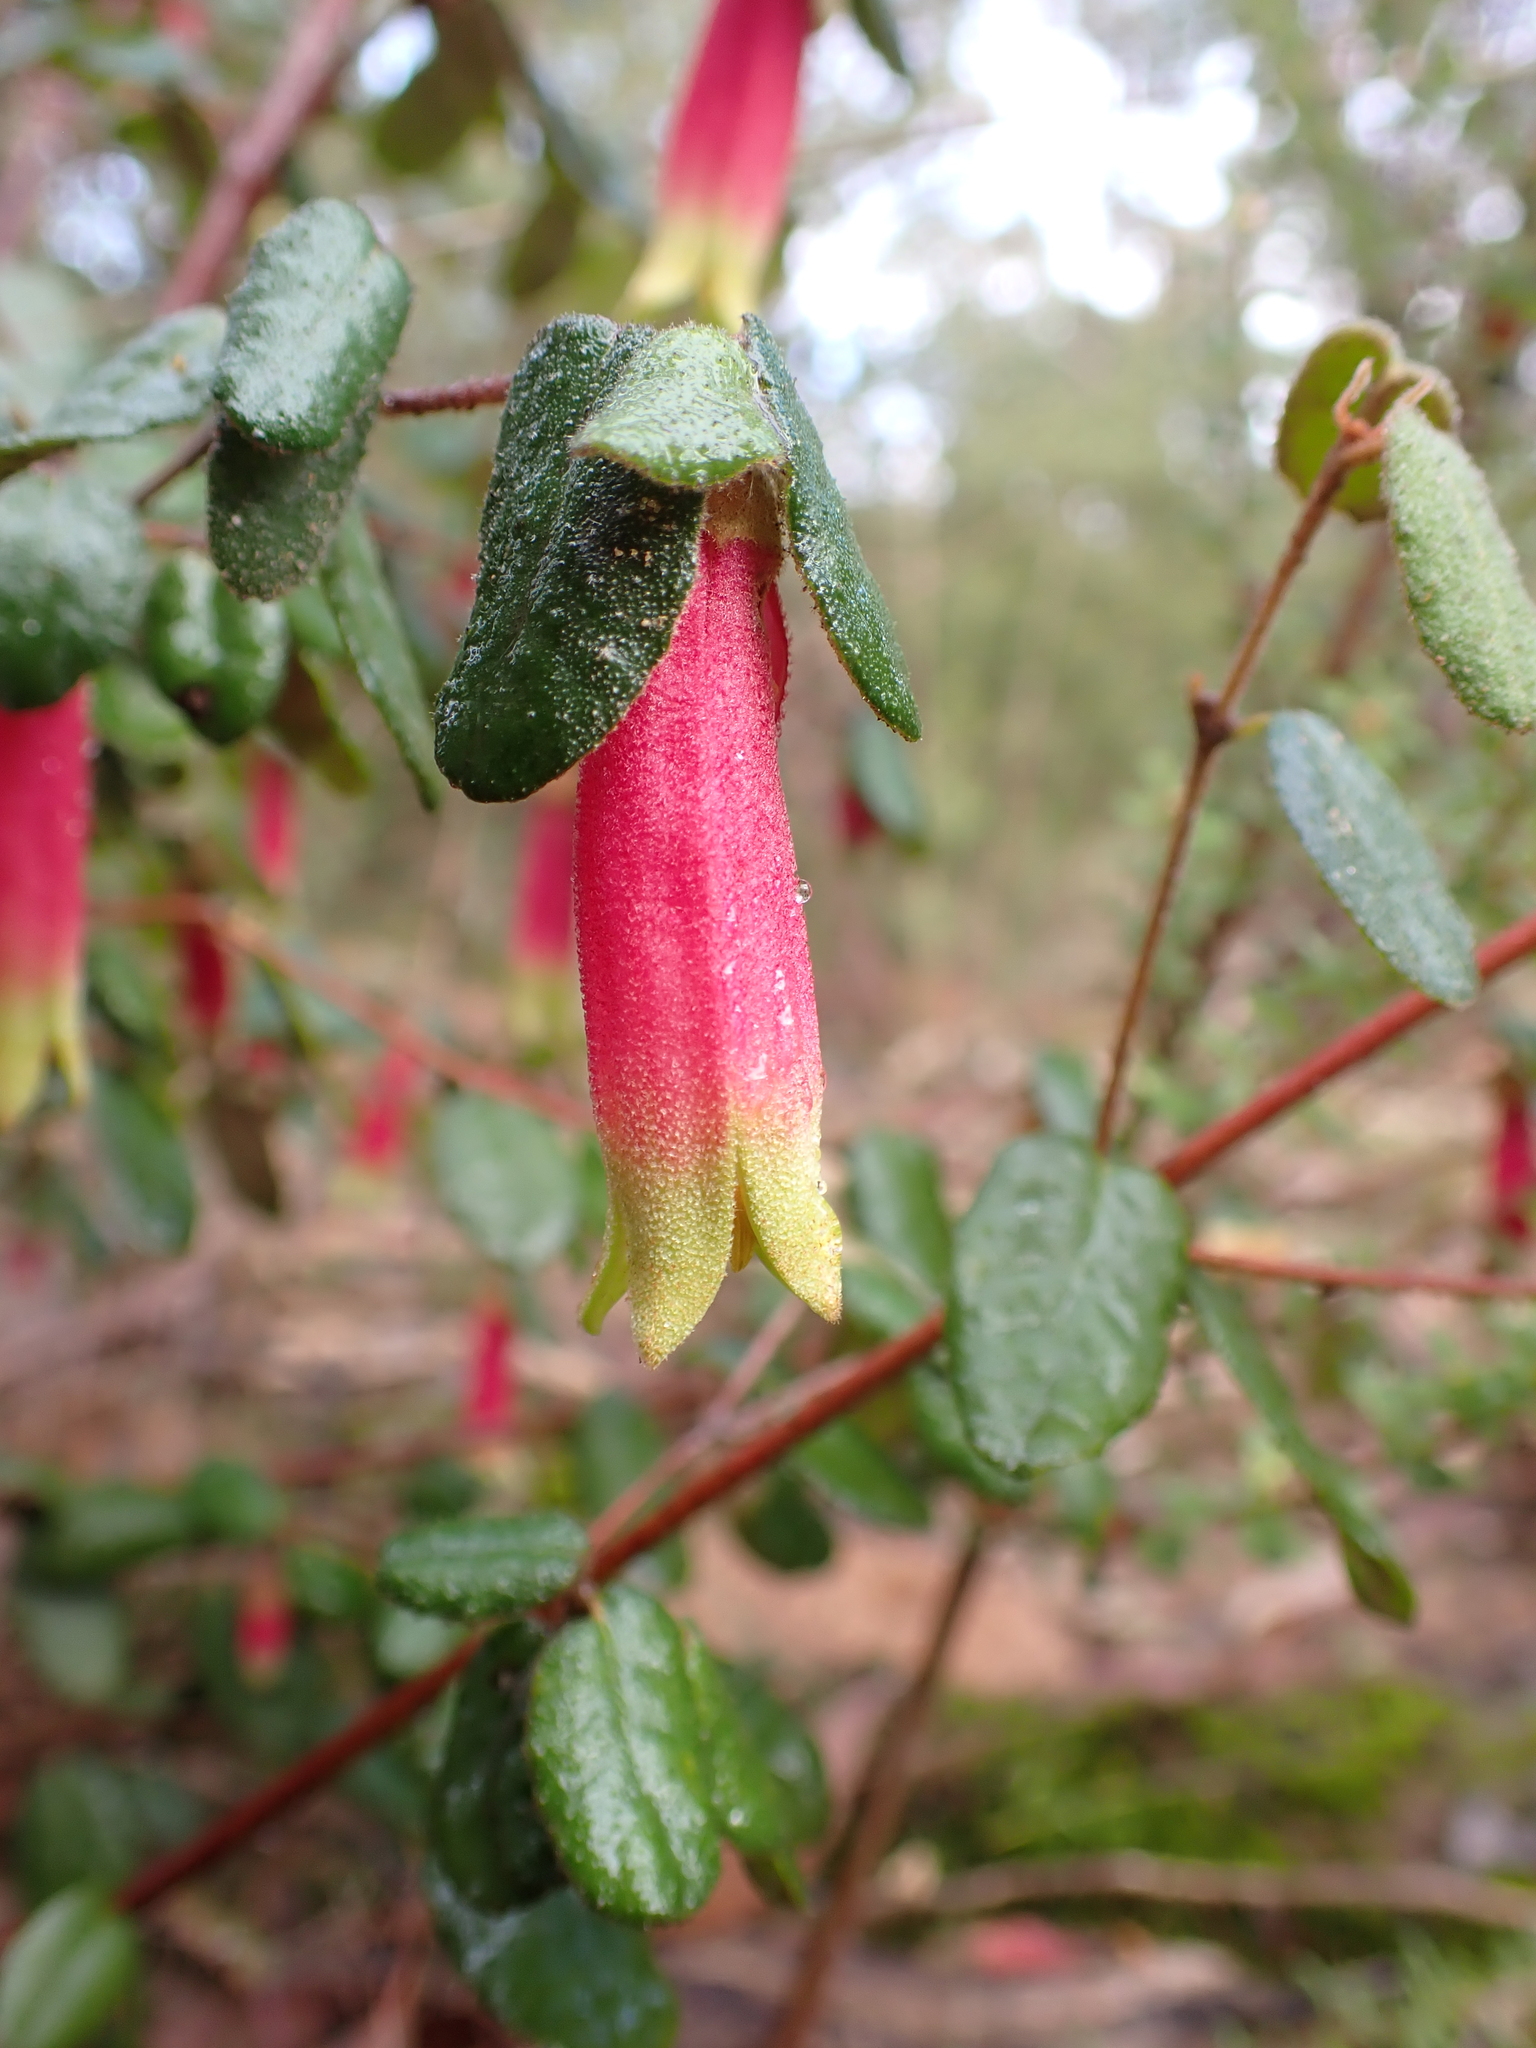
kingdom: Plantae
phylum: Tracheophyta
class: Magnoliopsida
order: Sapindales
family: Rutaceae
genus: Correa
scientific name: Correa reflexa
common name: Common correa
